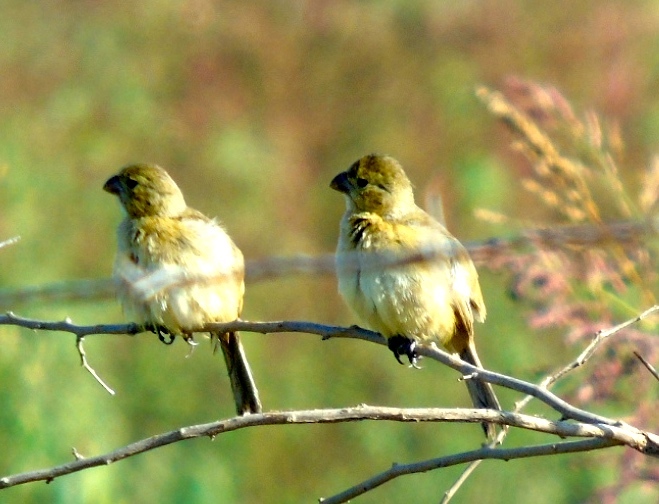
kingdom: Animalia
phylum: Chordata
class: Aves
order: Passeriformes
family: Thraupidae
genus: Sporophila
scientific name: Sporophila torqueola
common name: White-collared seedeater
